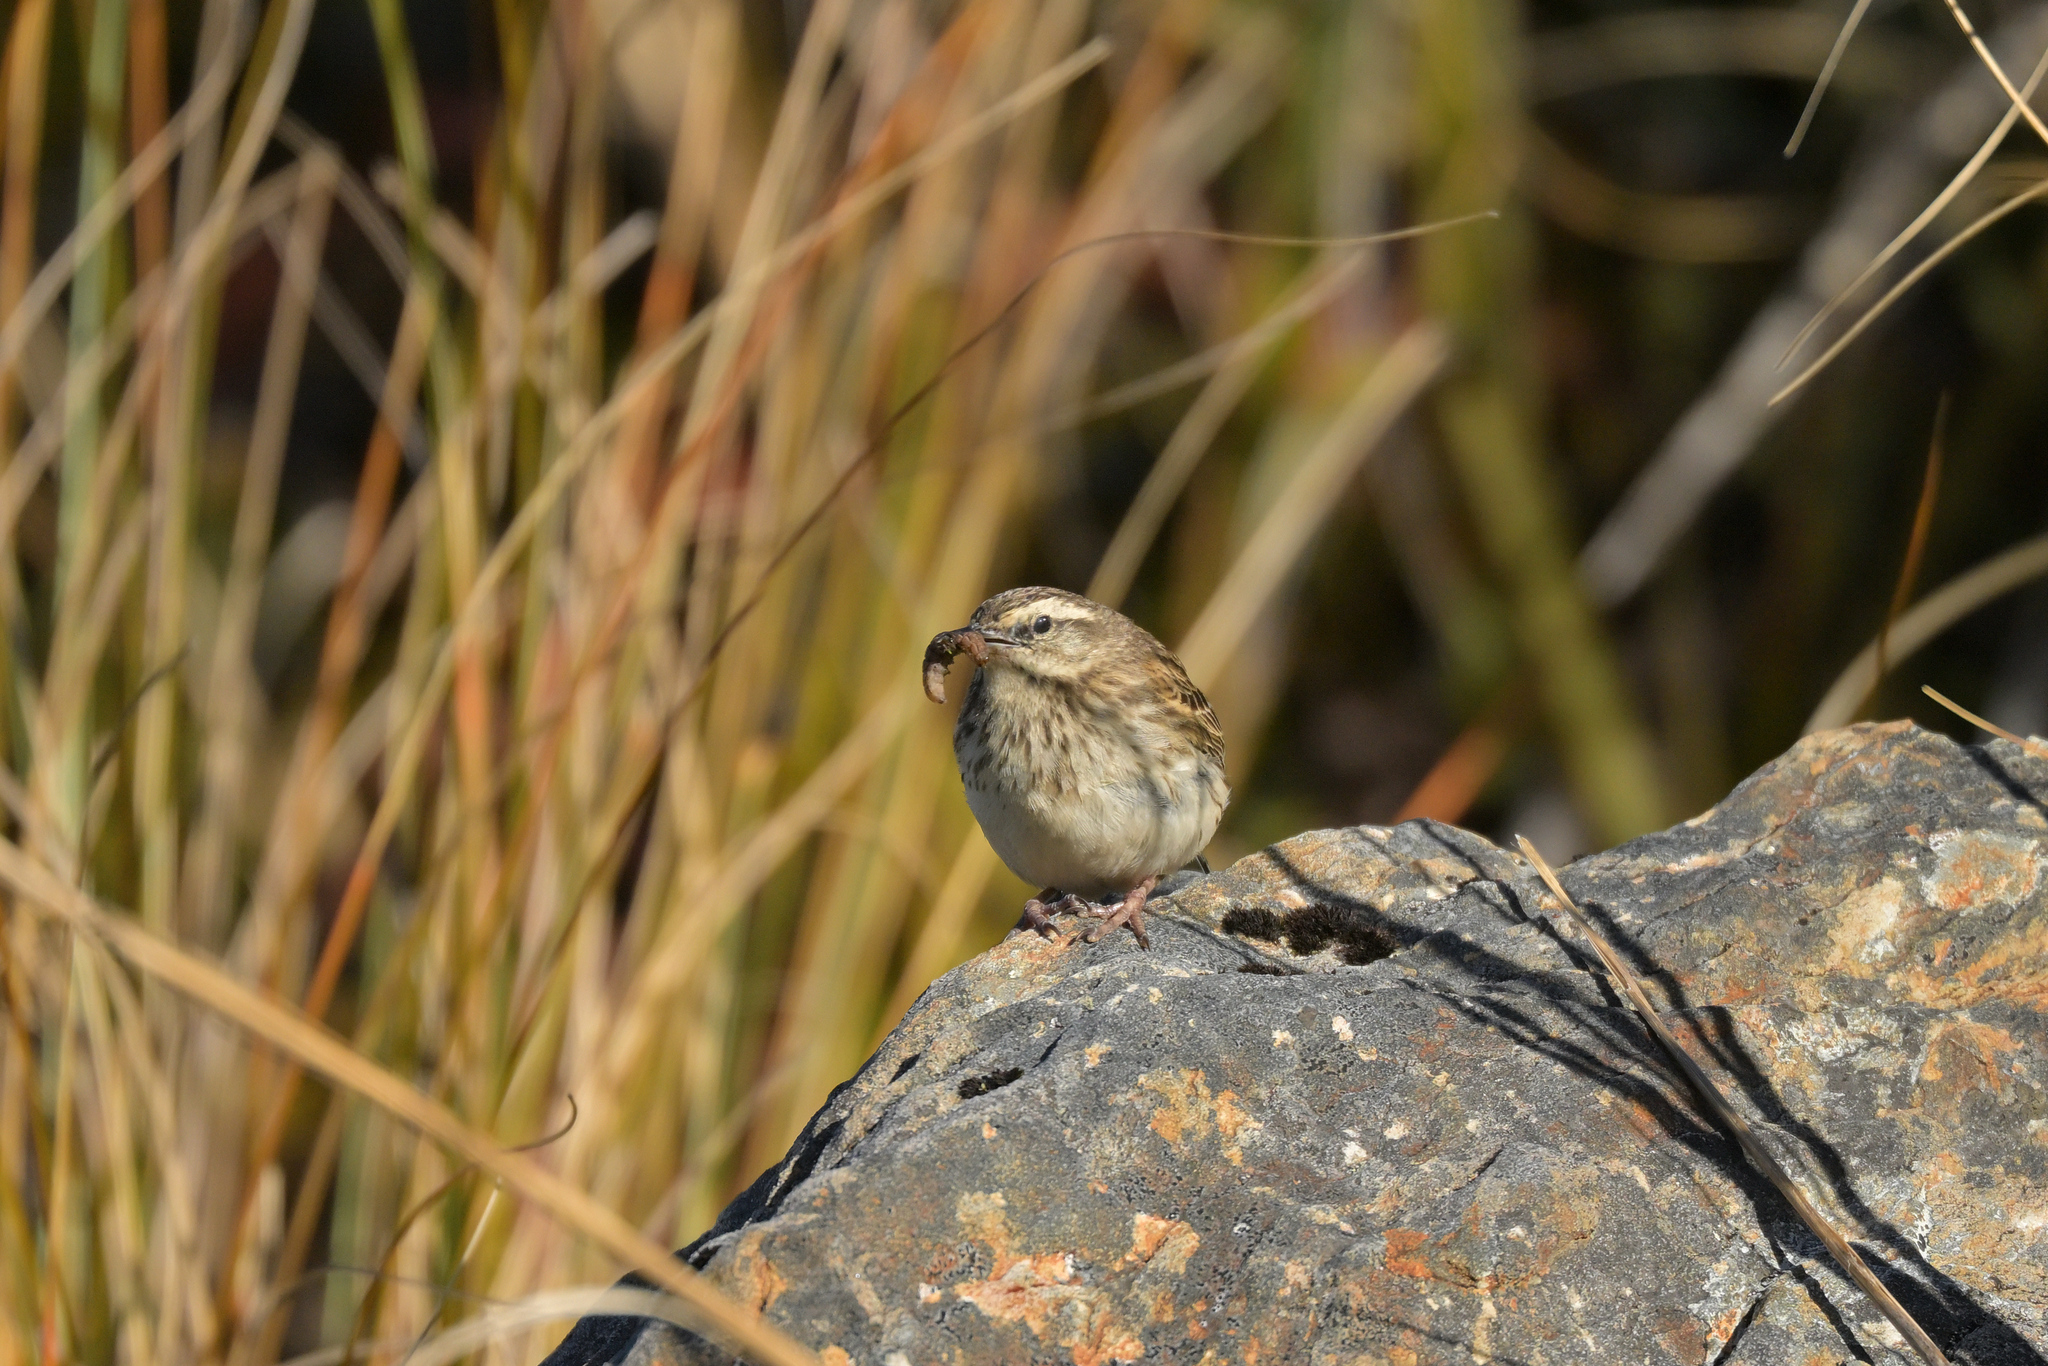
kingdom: Animalia
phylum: Chordata
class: Aves
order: Passeriformes
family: Motacillidae
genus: Anthus
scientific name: Anthus novaeseelandiae
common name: New zealand pipit
